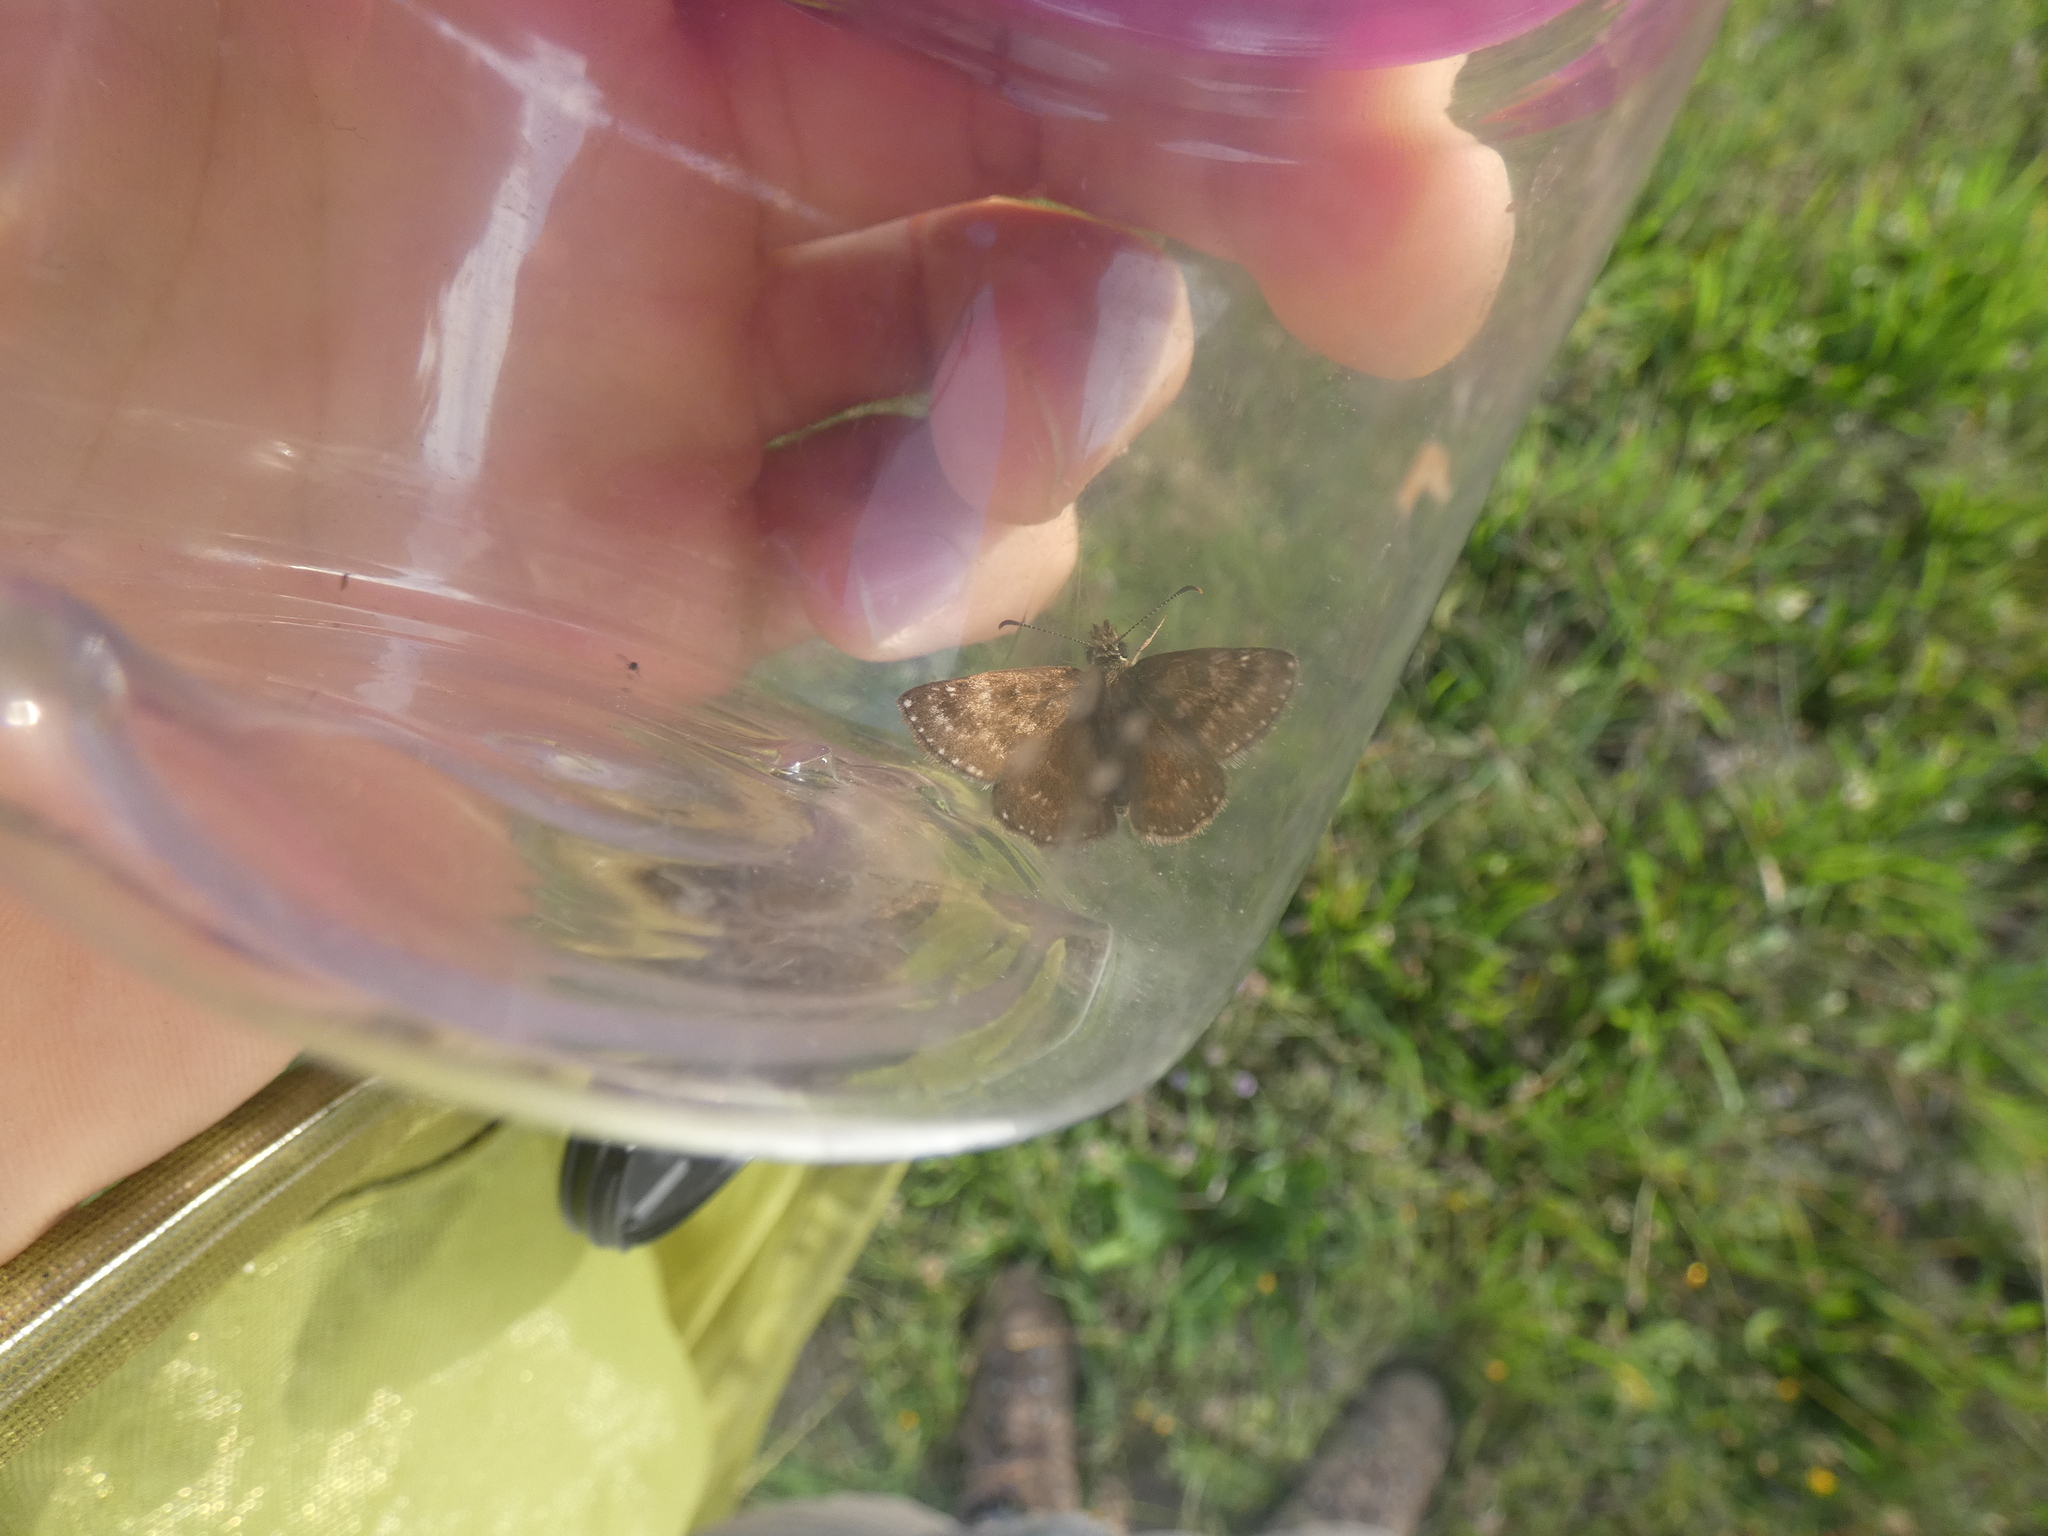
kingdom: Animalia
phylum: Arthropoda
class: Insecta
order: Lepidoptera
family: Hesperiidae
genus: Erynnis
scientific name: Erynnis tages
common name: Dingy skipper
